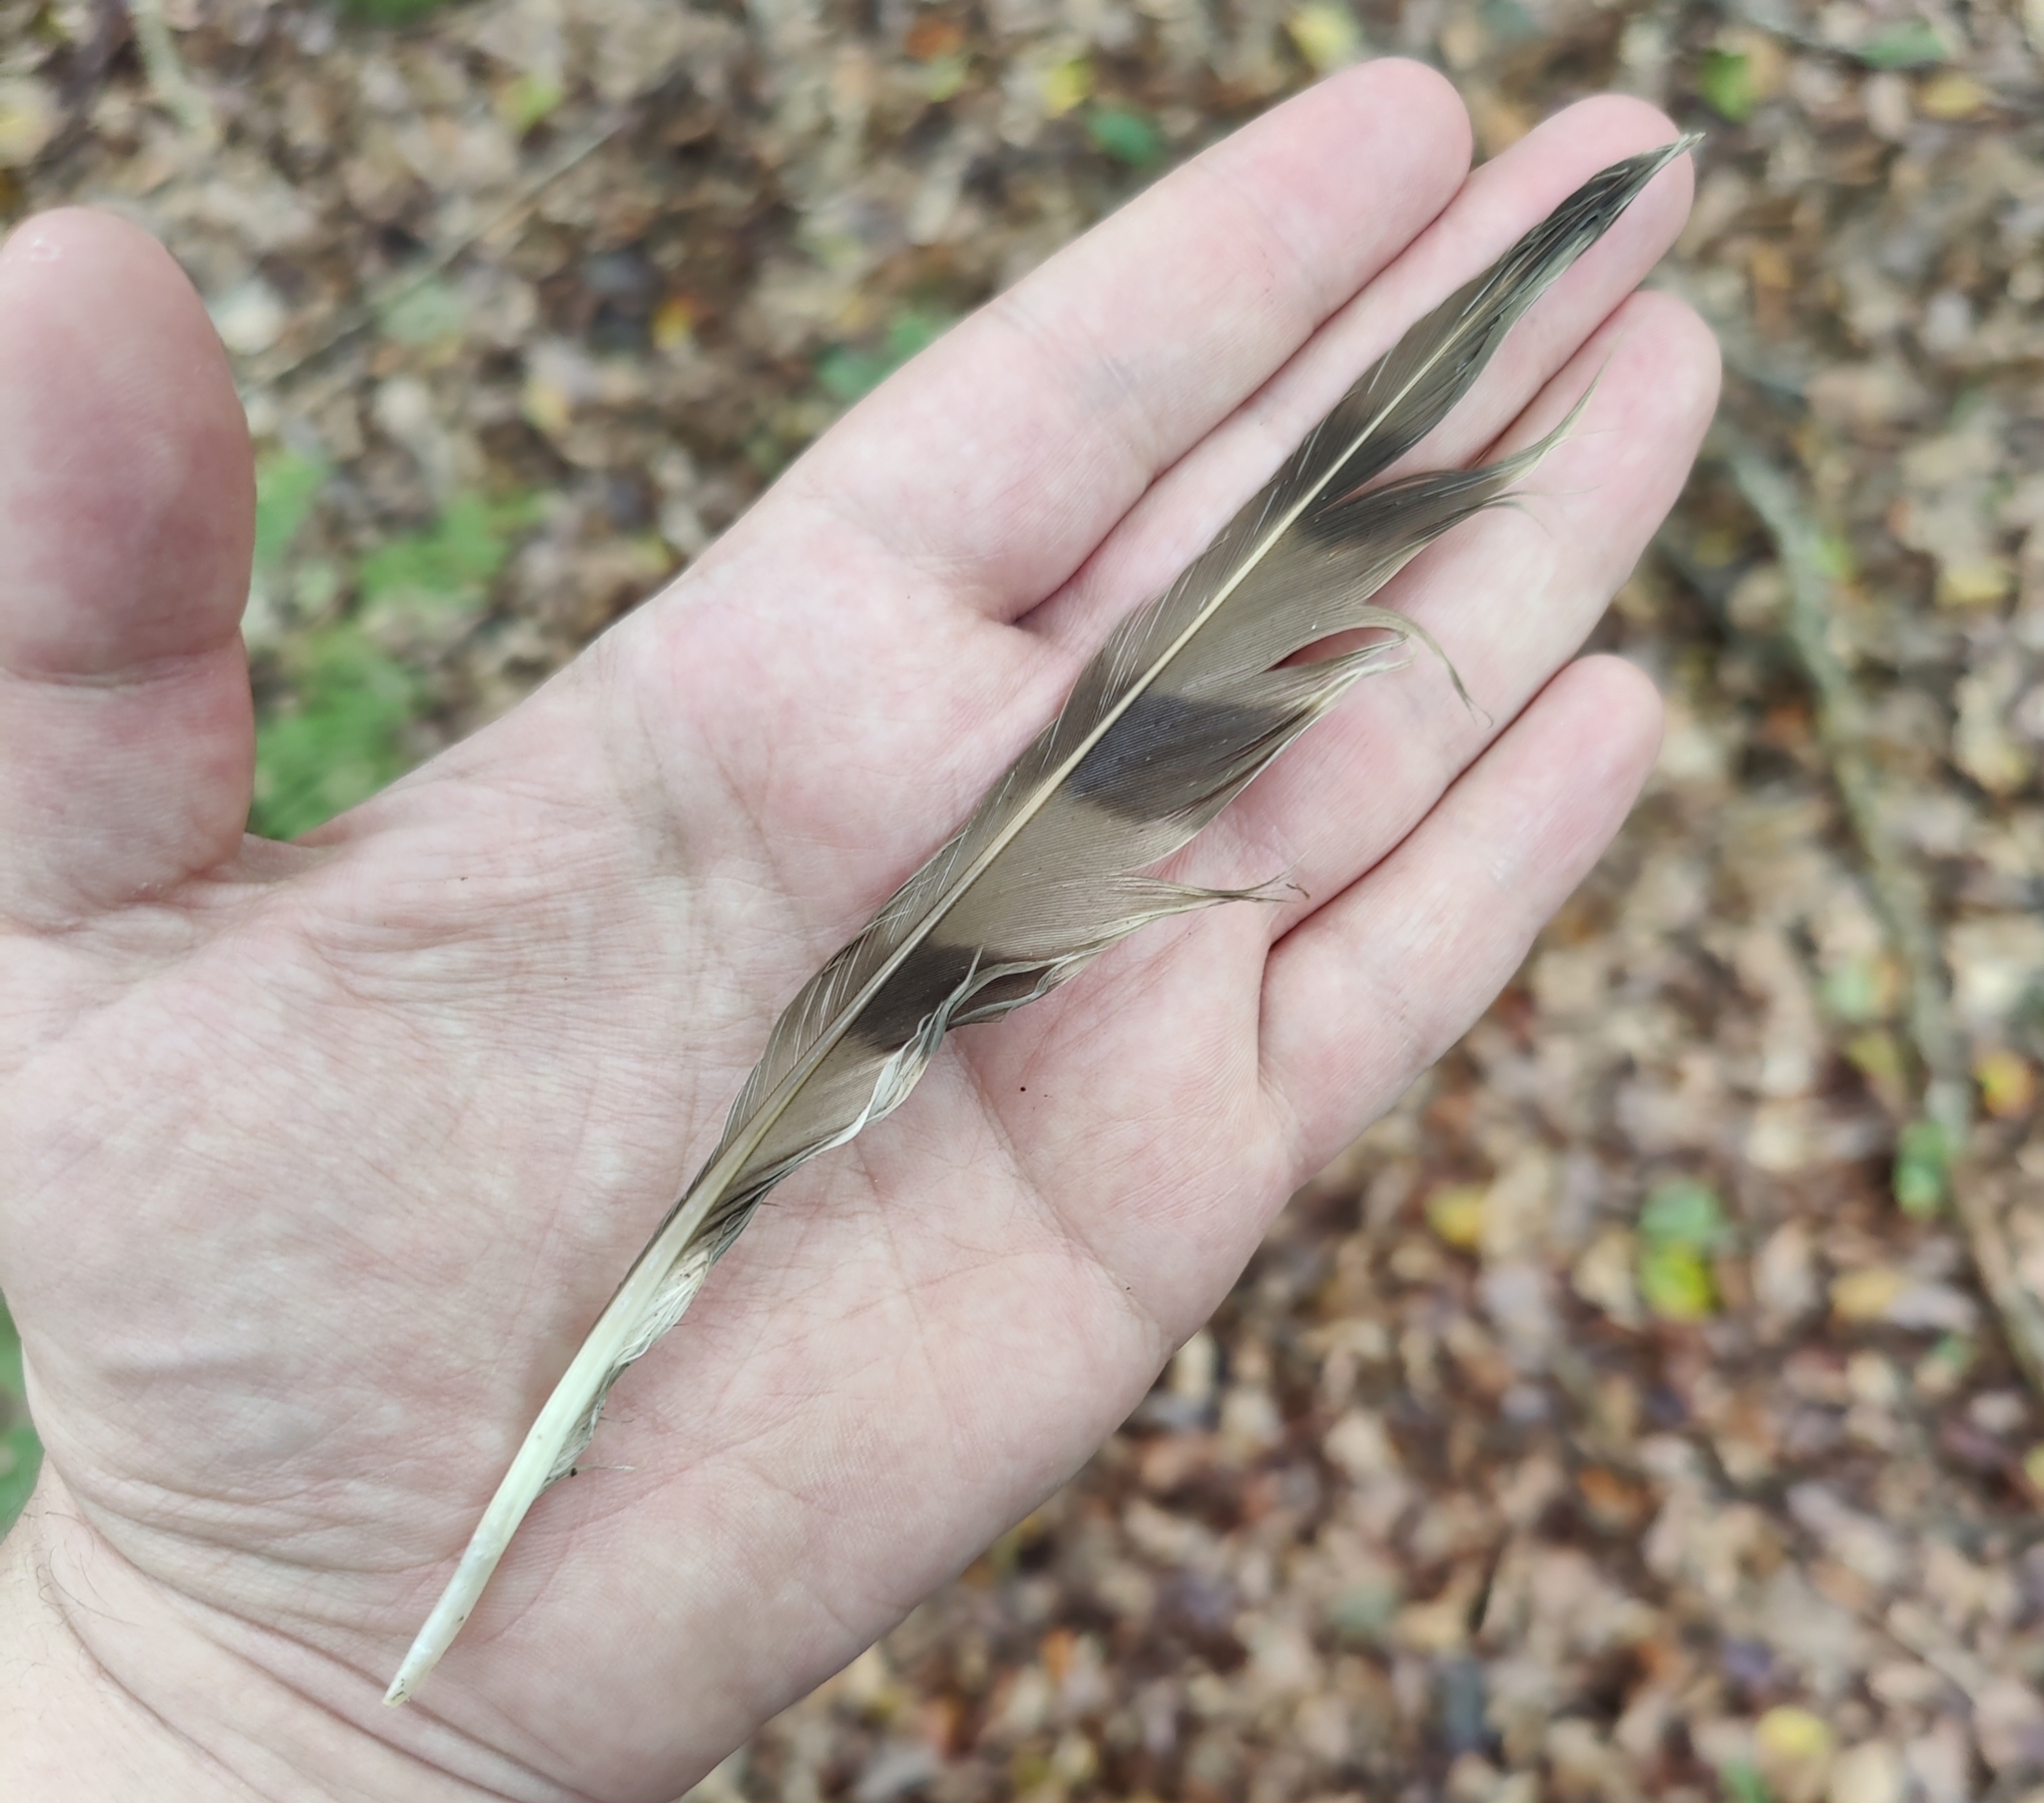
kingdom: Animalia
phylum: Chordata
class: Aves
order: Accipitriformes
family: Accipitridae
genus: Accipiter
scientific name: Accipiter nisus
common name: Eurasian sparrowhawk
